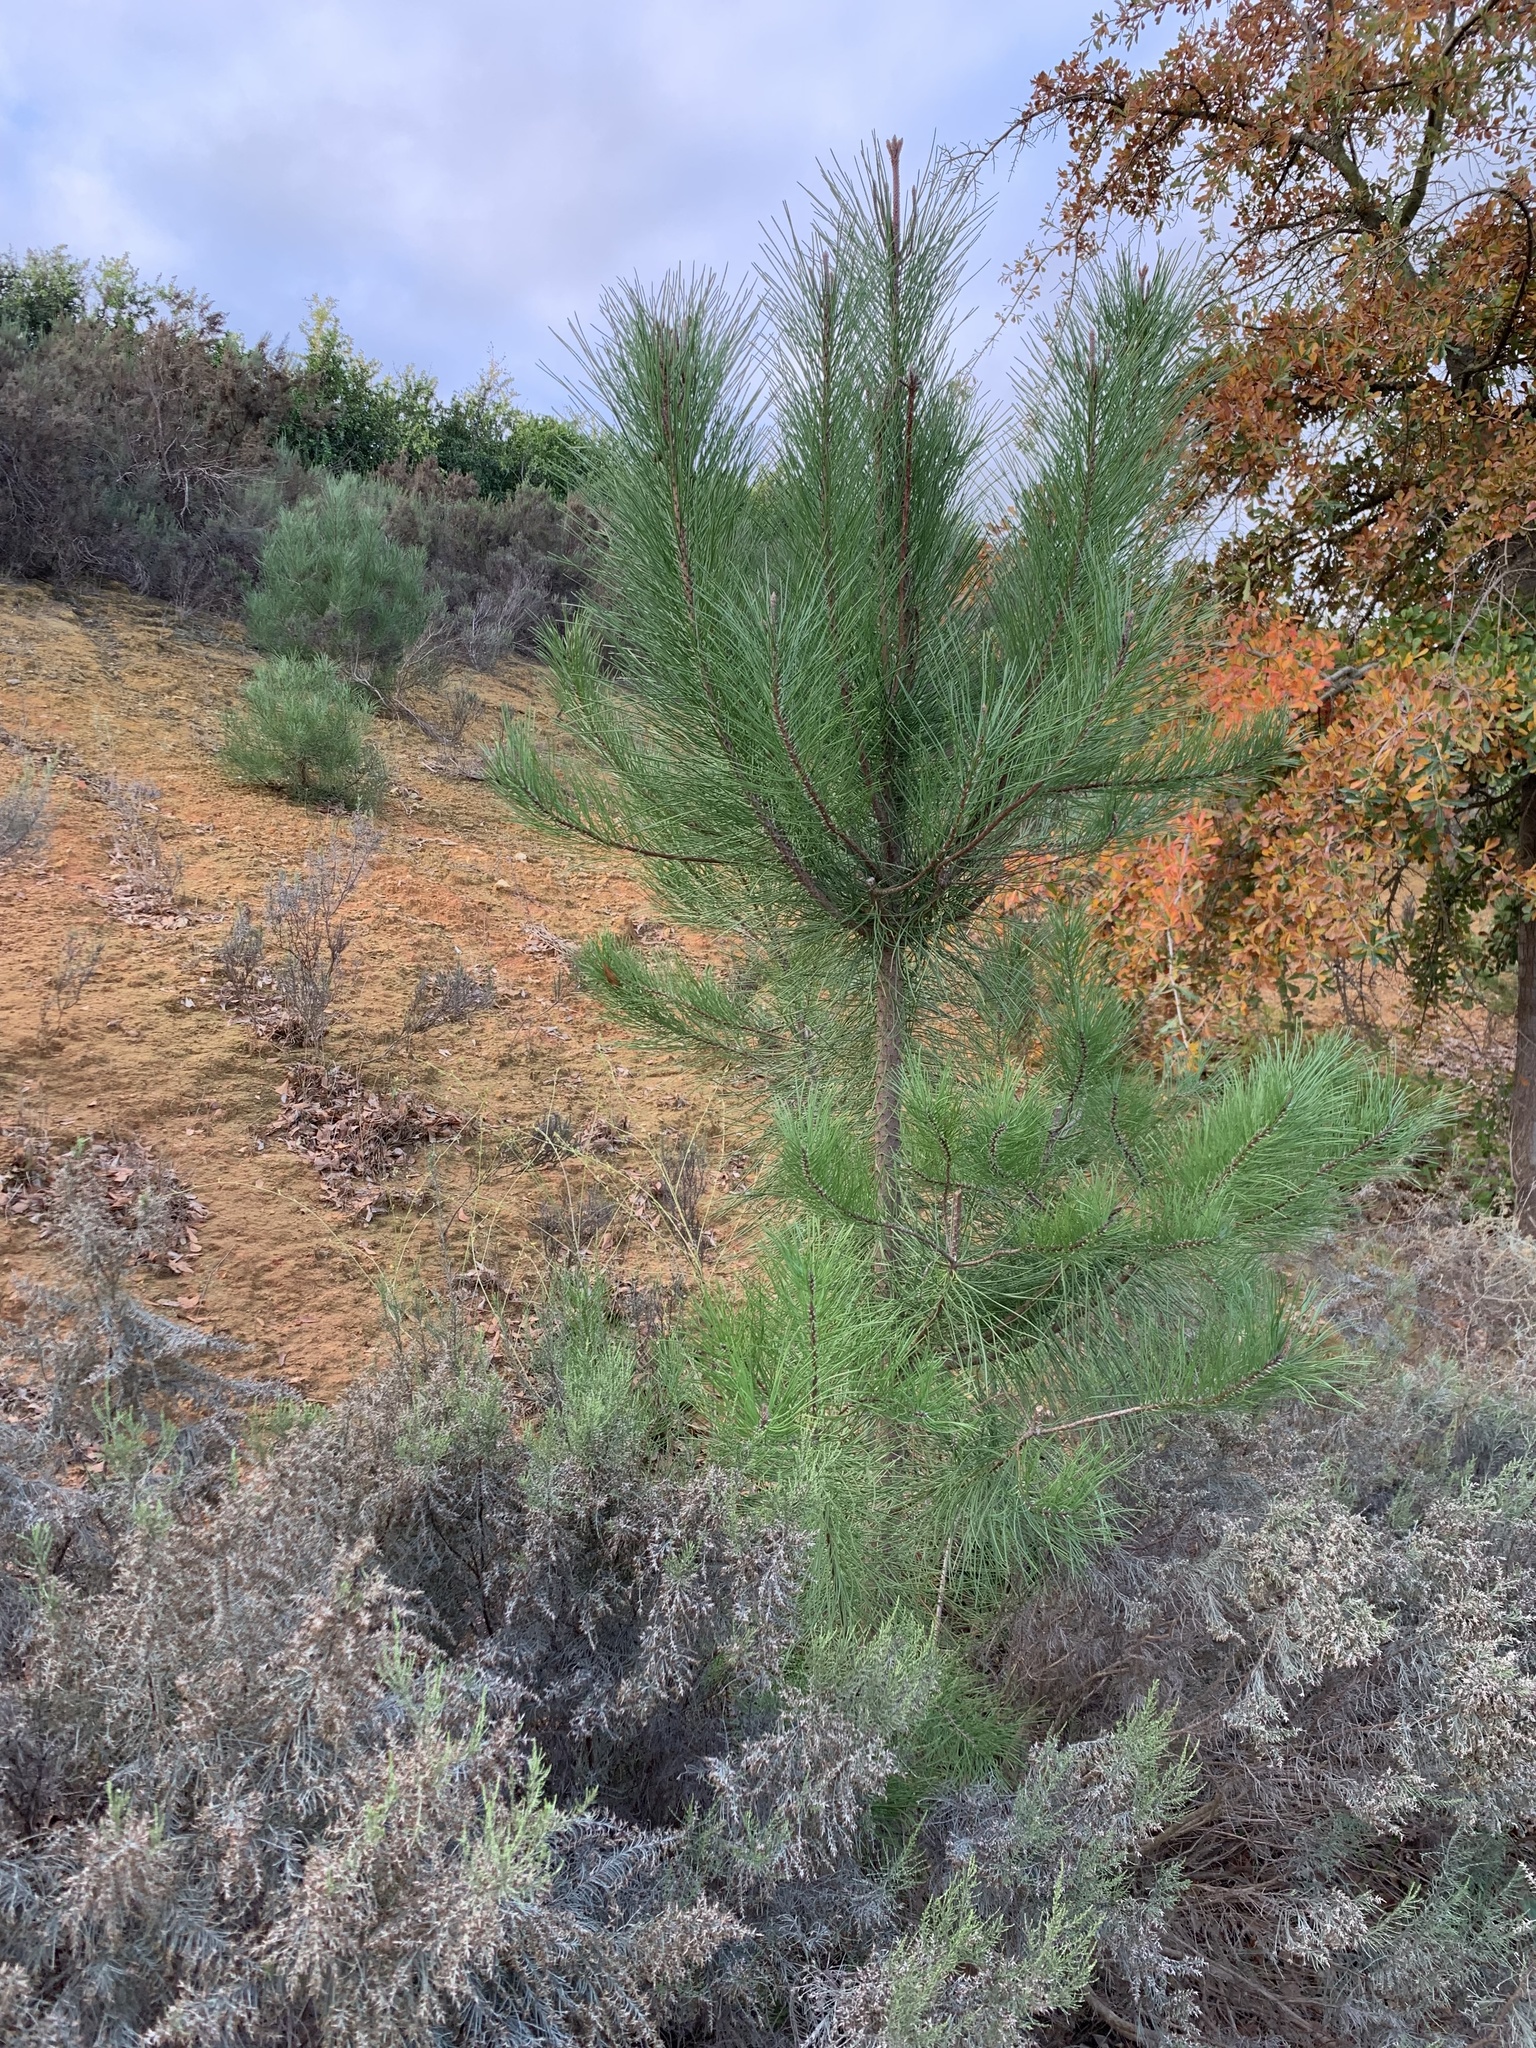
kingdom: Plantae
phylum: Tracheophyta
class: Pinopsida
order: Pinales
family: Pinaceae
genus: Pinus
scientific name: Pinus pinaster
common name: Maritime pine
